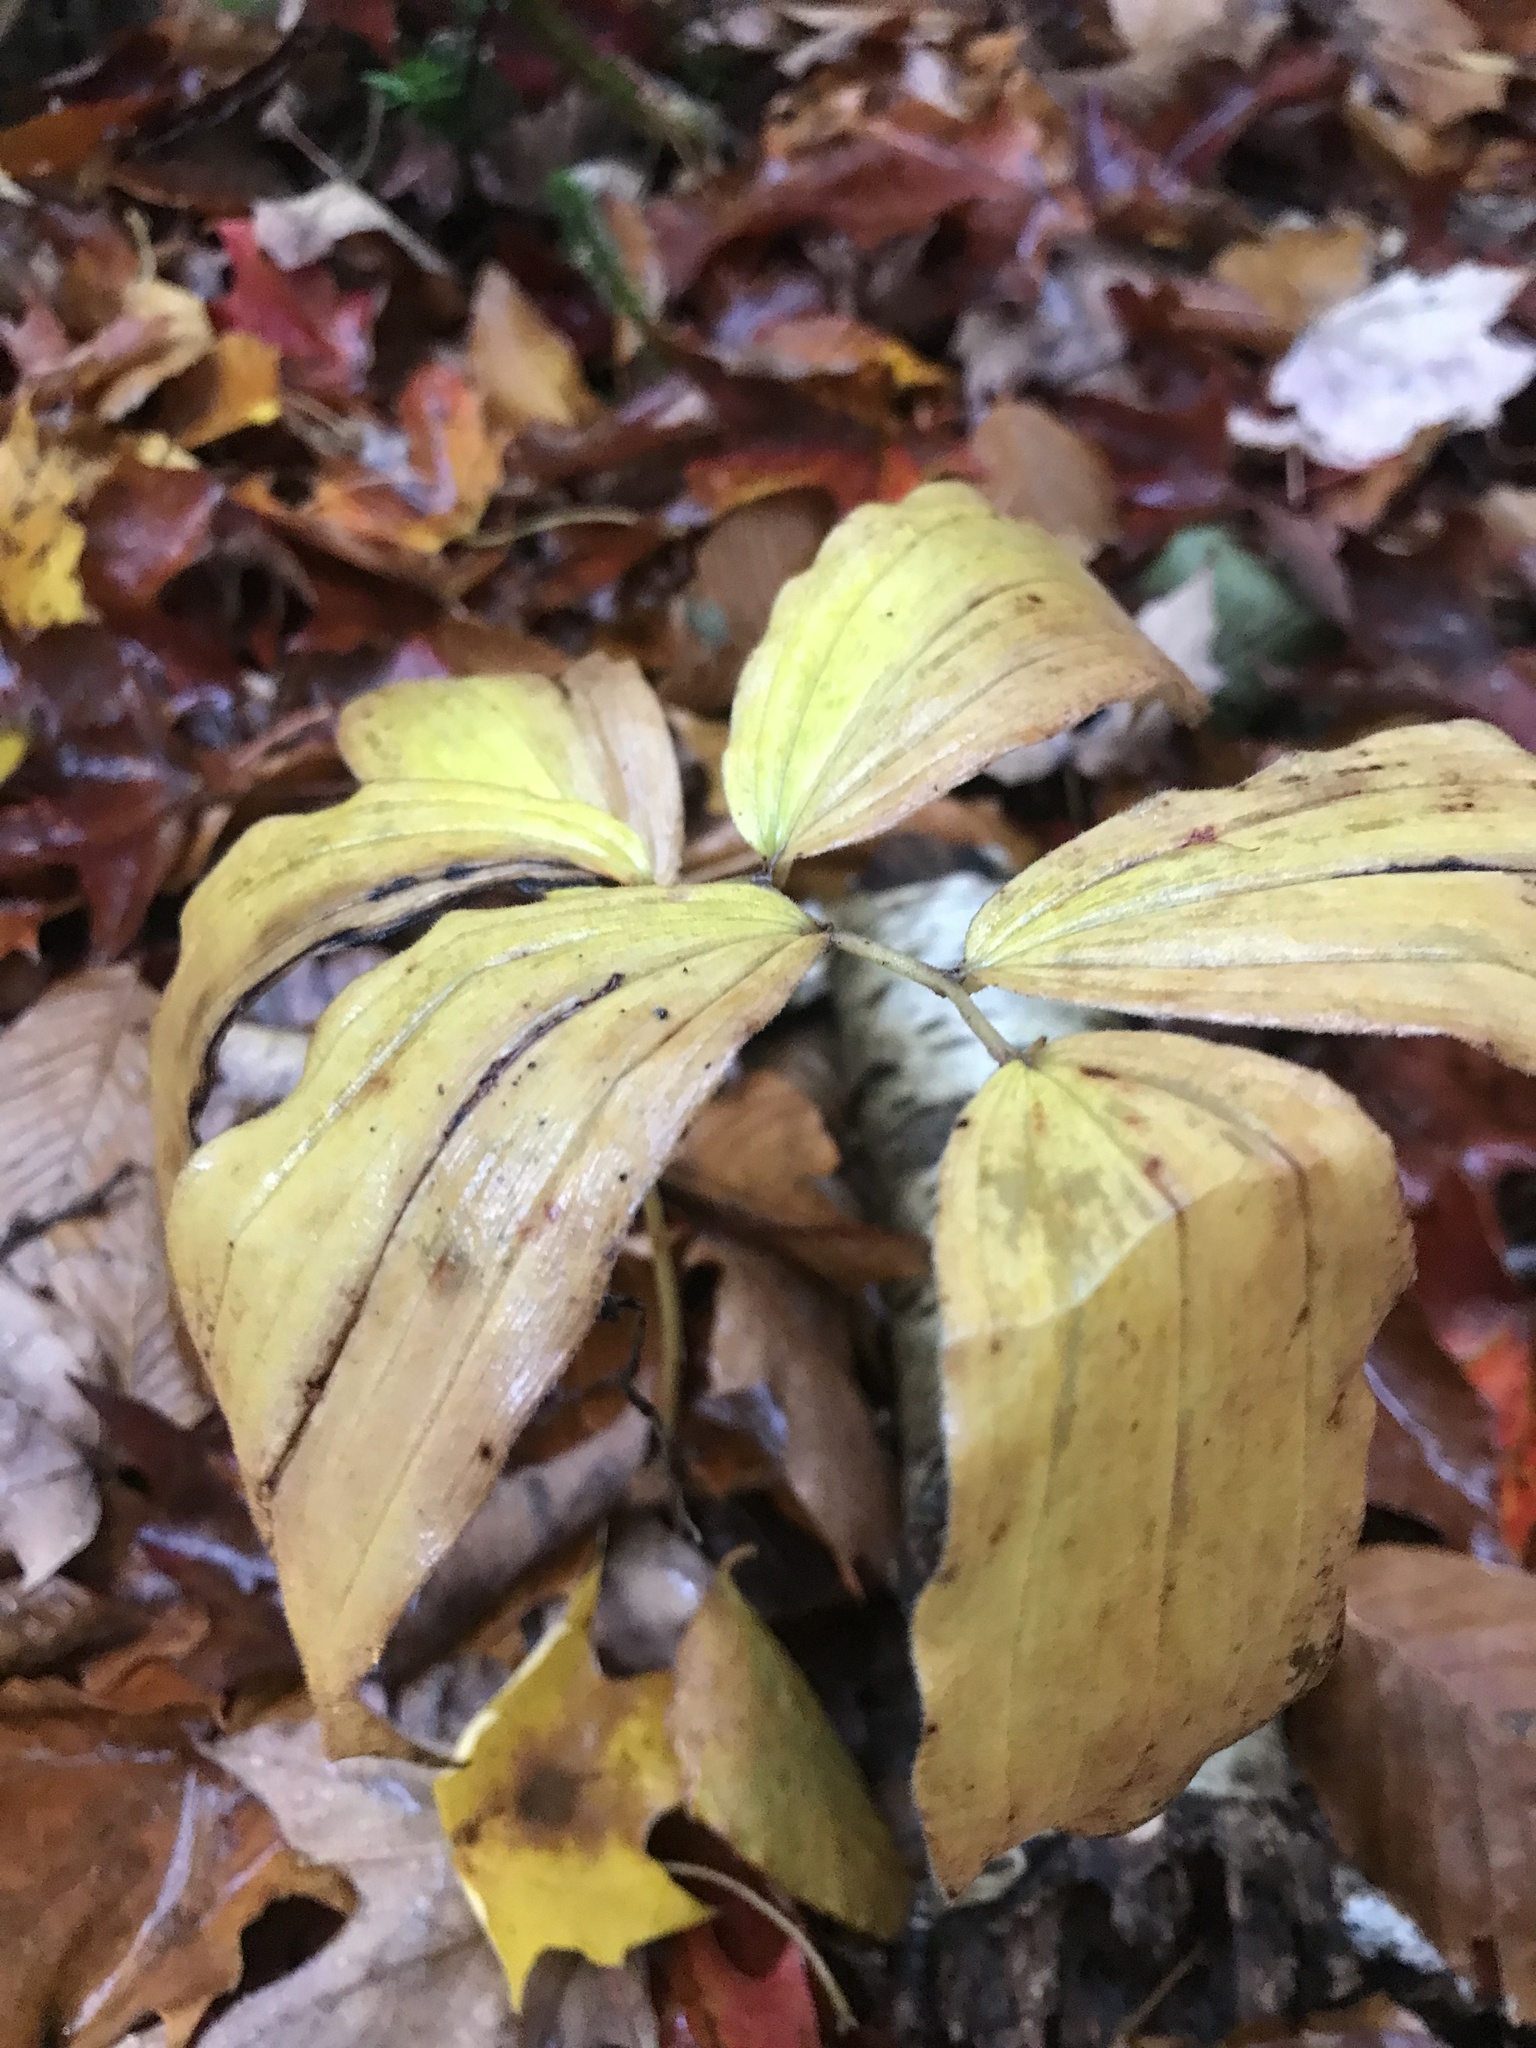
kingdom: Plantae
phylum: Tracheophyta
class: Liliopsida
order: Asparagales
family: Asparagaceae
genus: Maianthemum
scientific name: Maianthemum racemosum
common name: False spikenard
